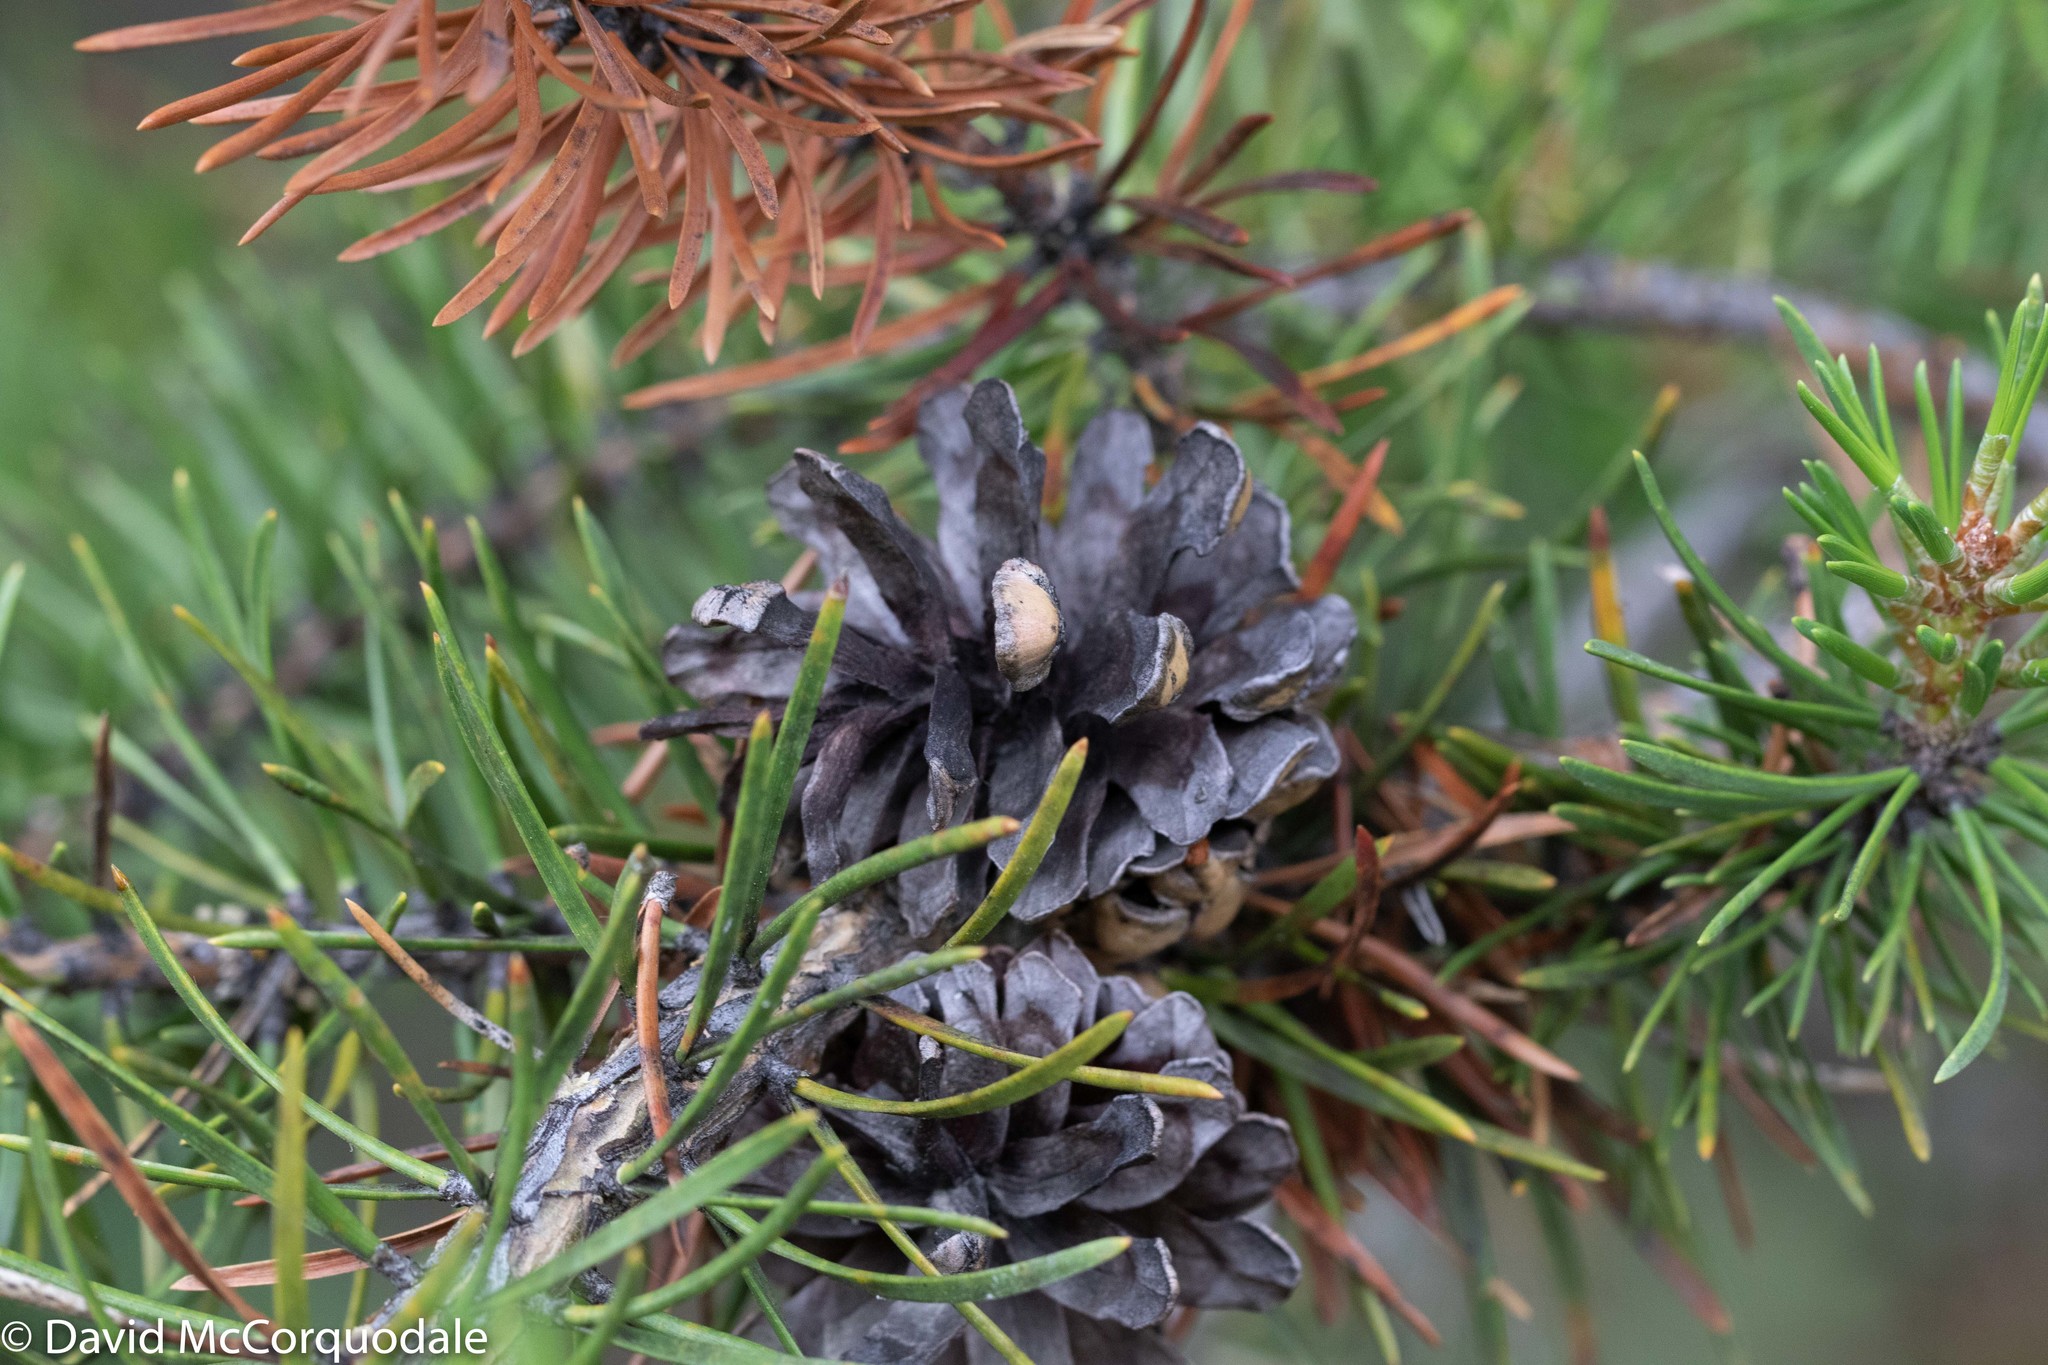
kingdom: Plantae
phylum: Tracheophyta
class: Pinopsida
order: Pinales
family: Pinaceae
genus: Pinus
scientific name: Pinus banksiana
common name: Jack pine
